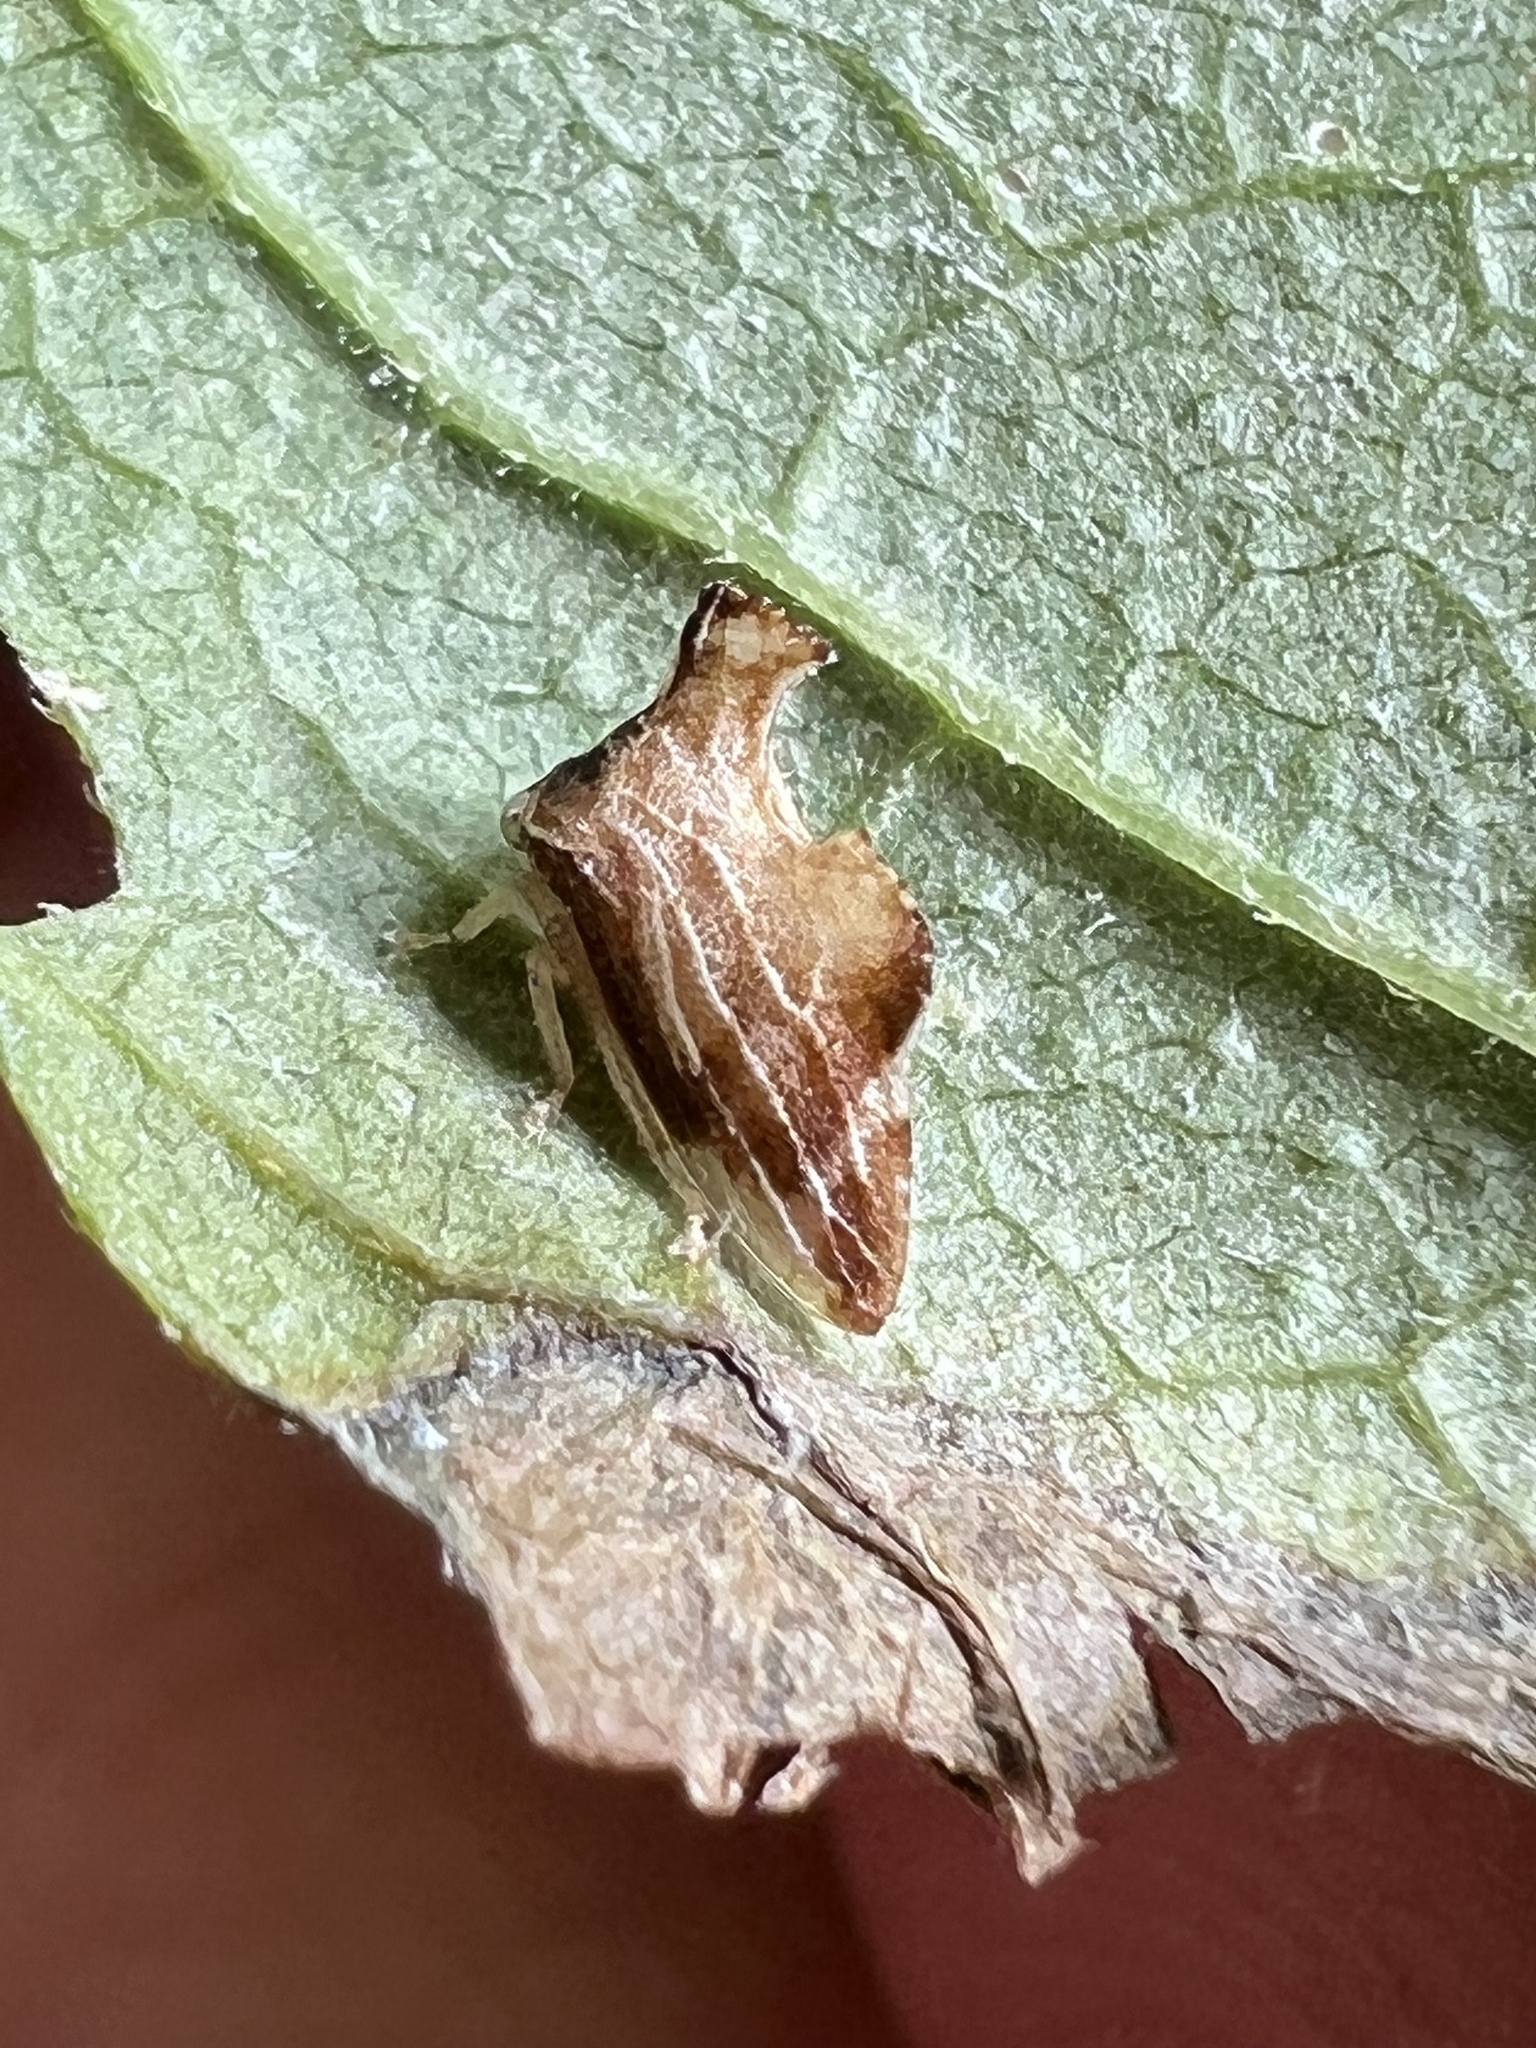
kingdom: Animalia
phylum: Arthropoda
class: Insecta
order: Hemiptera
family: Membracidae
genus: Entylia
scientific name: Entylia carinata
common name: Keeled treehopper
